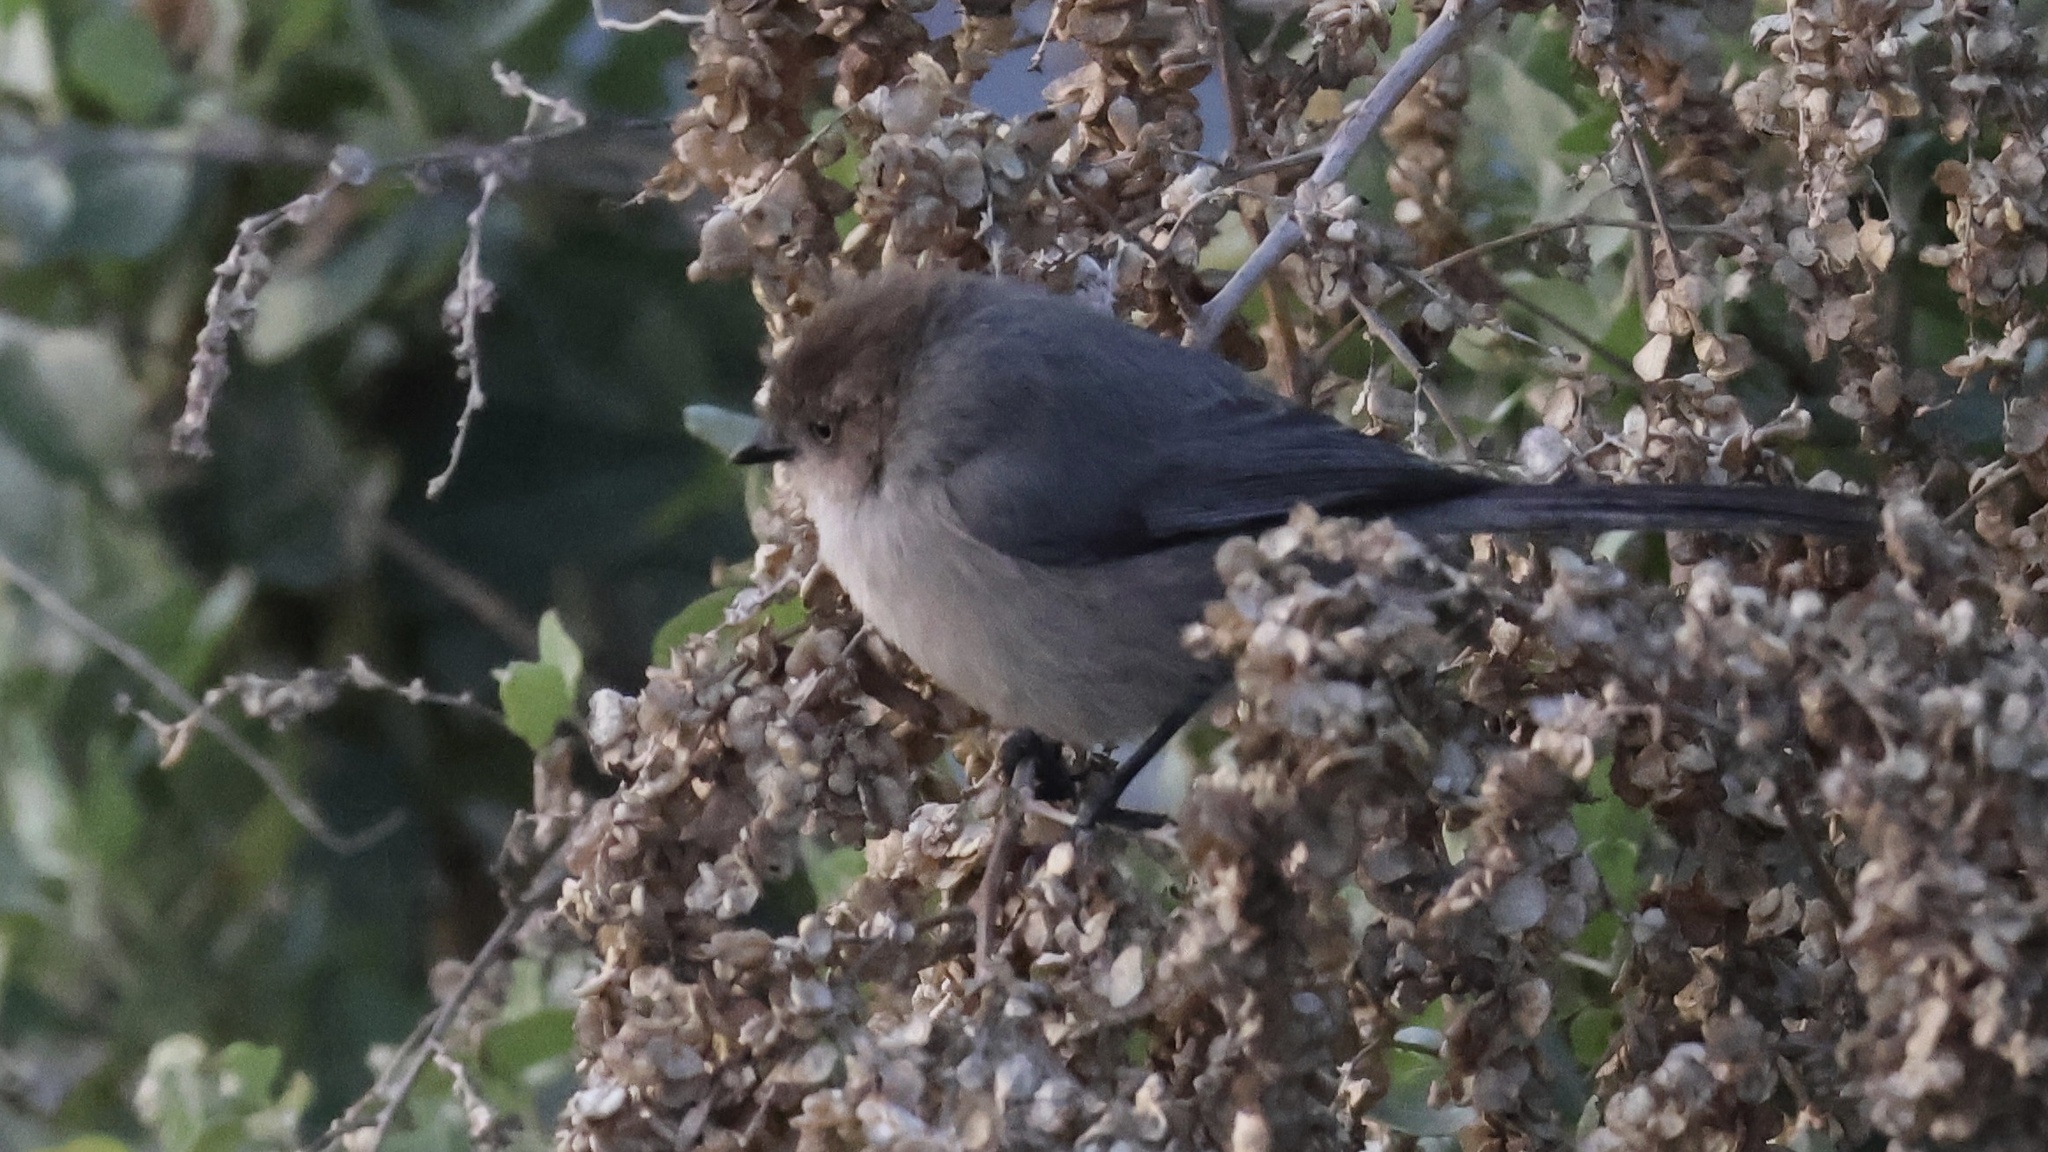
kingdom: Animalia
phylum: Chordata
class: Aves
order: Passeriformes
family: Aegithalidae
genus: Psaltriparus
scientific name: Psaltriparus minimus
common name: American bushtit
